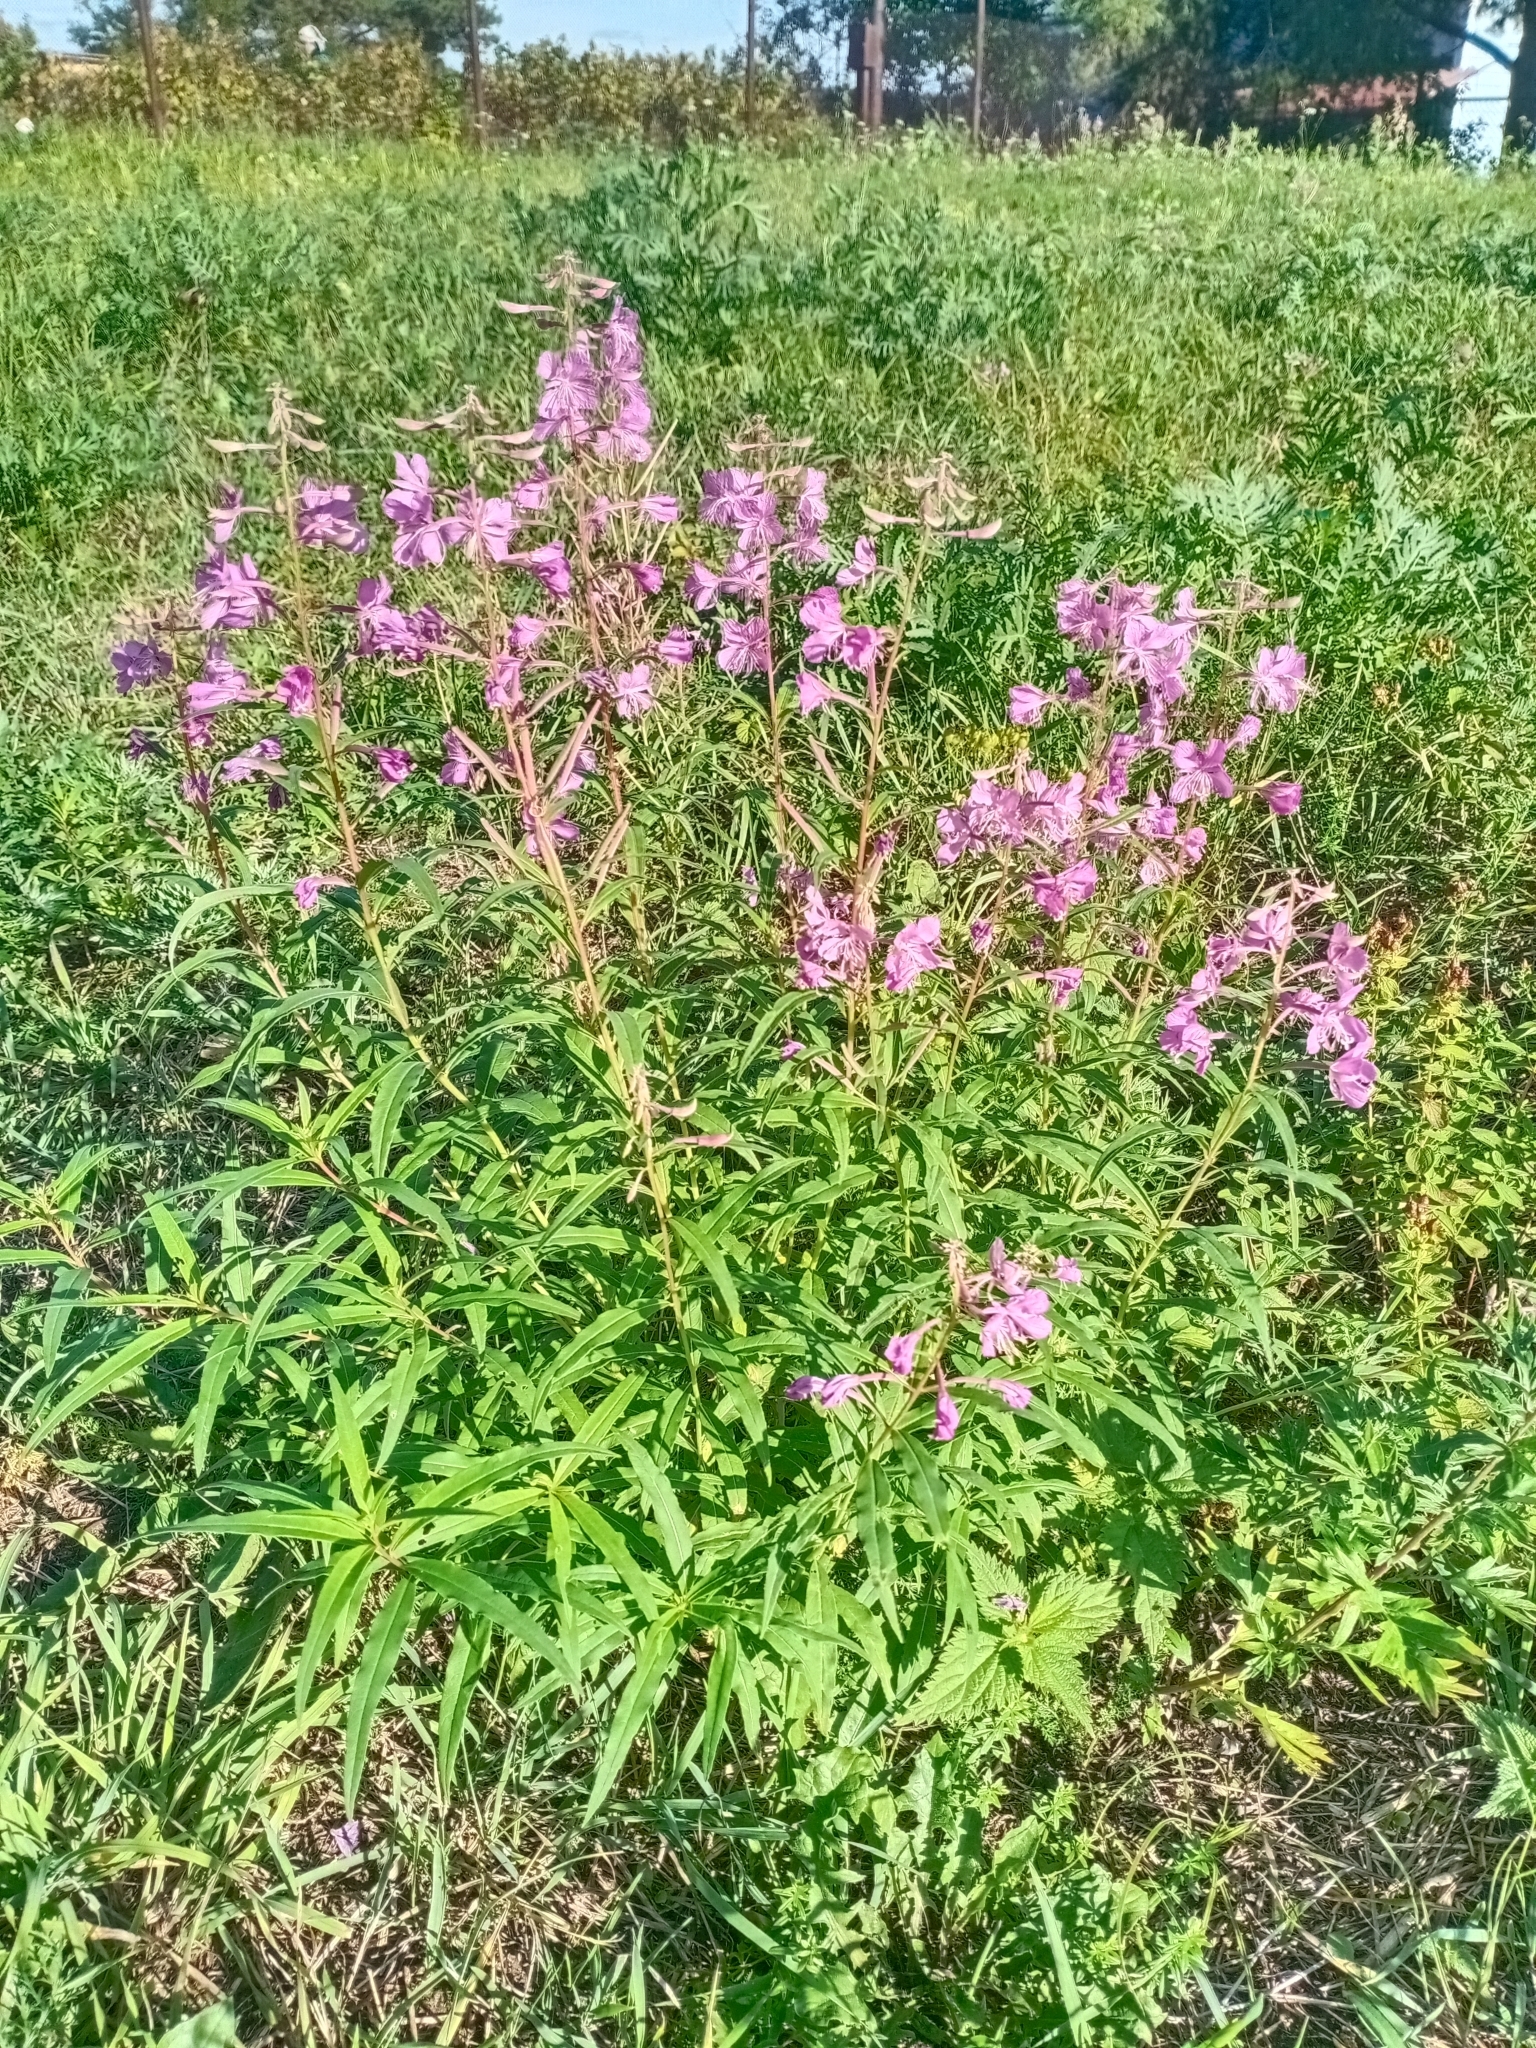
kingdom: Plantae
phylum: Tracheophyta
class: Magnoliopsida
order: Myrtales
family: Onagraceae
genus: Chamaenerion
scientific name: Chamaenerion angustifolium
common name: Fireweed
